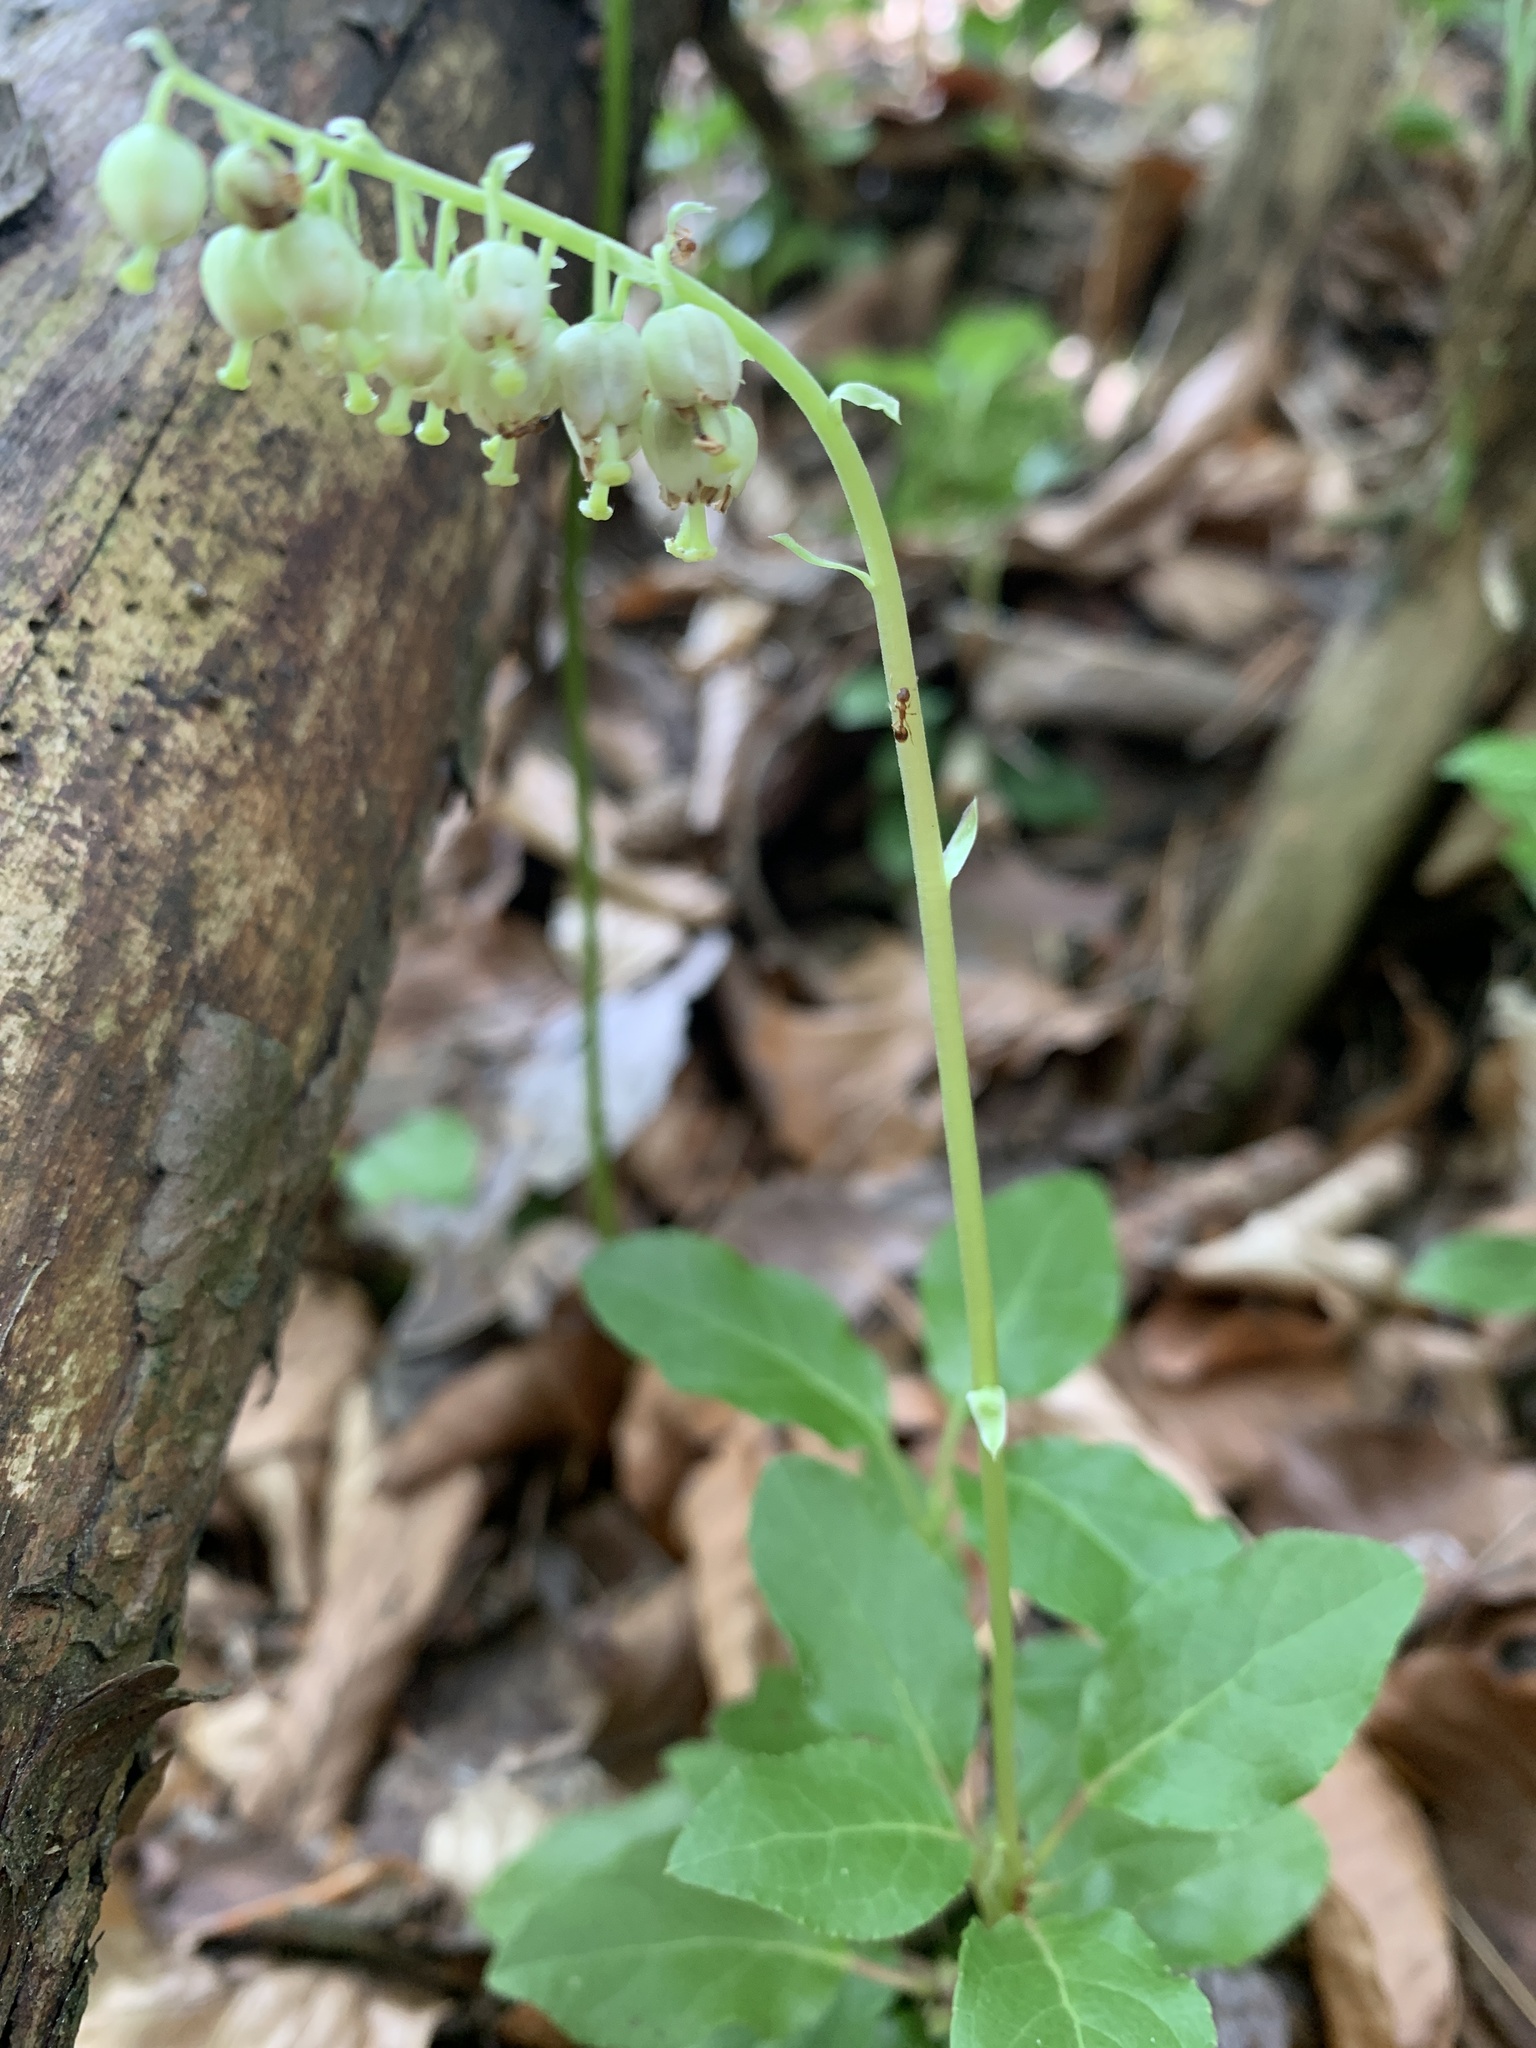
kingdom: Plantae
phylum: Tracheophyta
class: Magnoliopsida
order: Ericales
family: Ericaceae
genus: Orthilia
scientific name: Orthilia secunda
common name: One-sided orthilia
